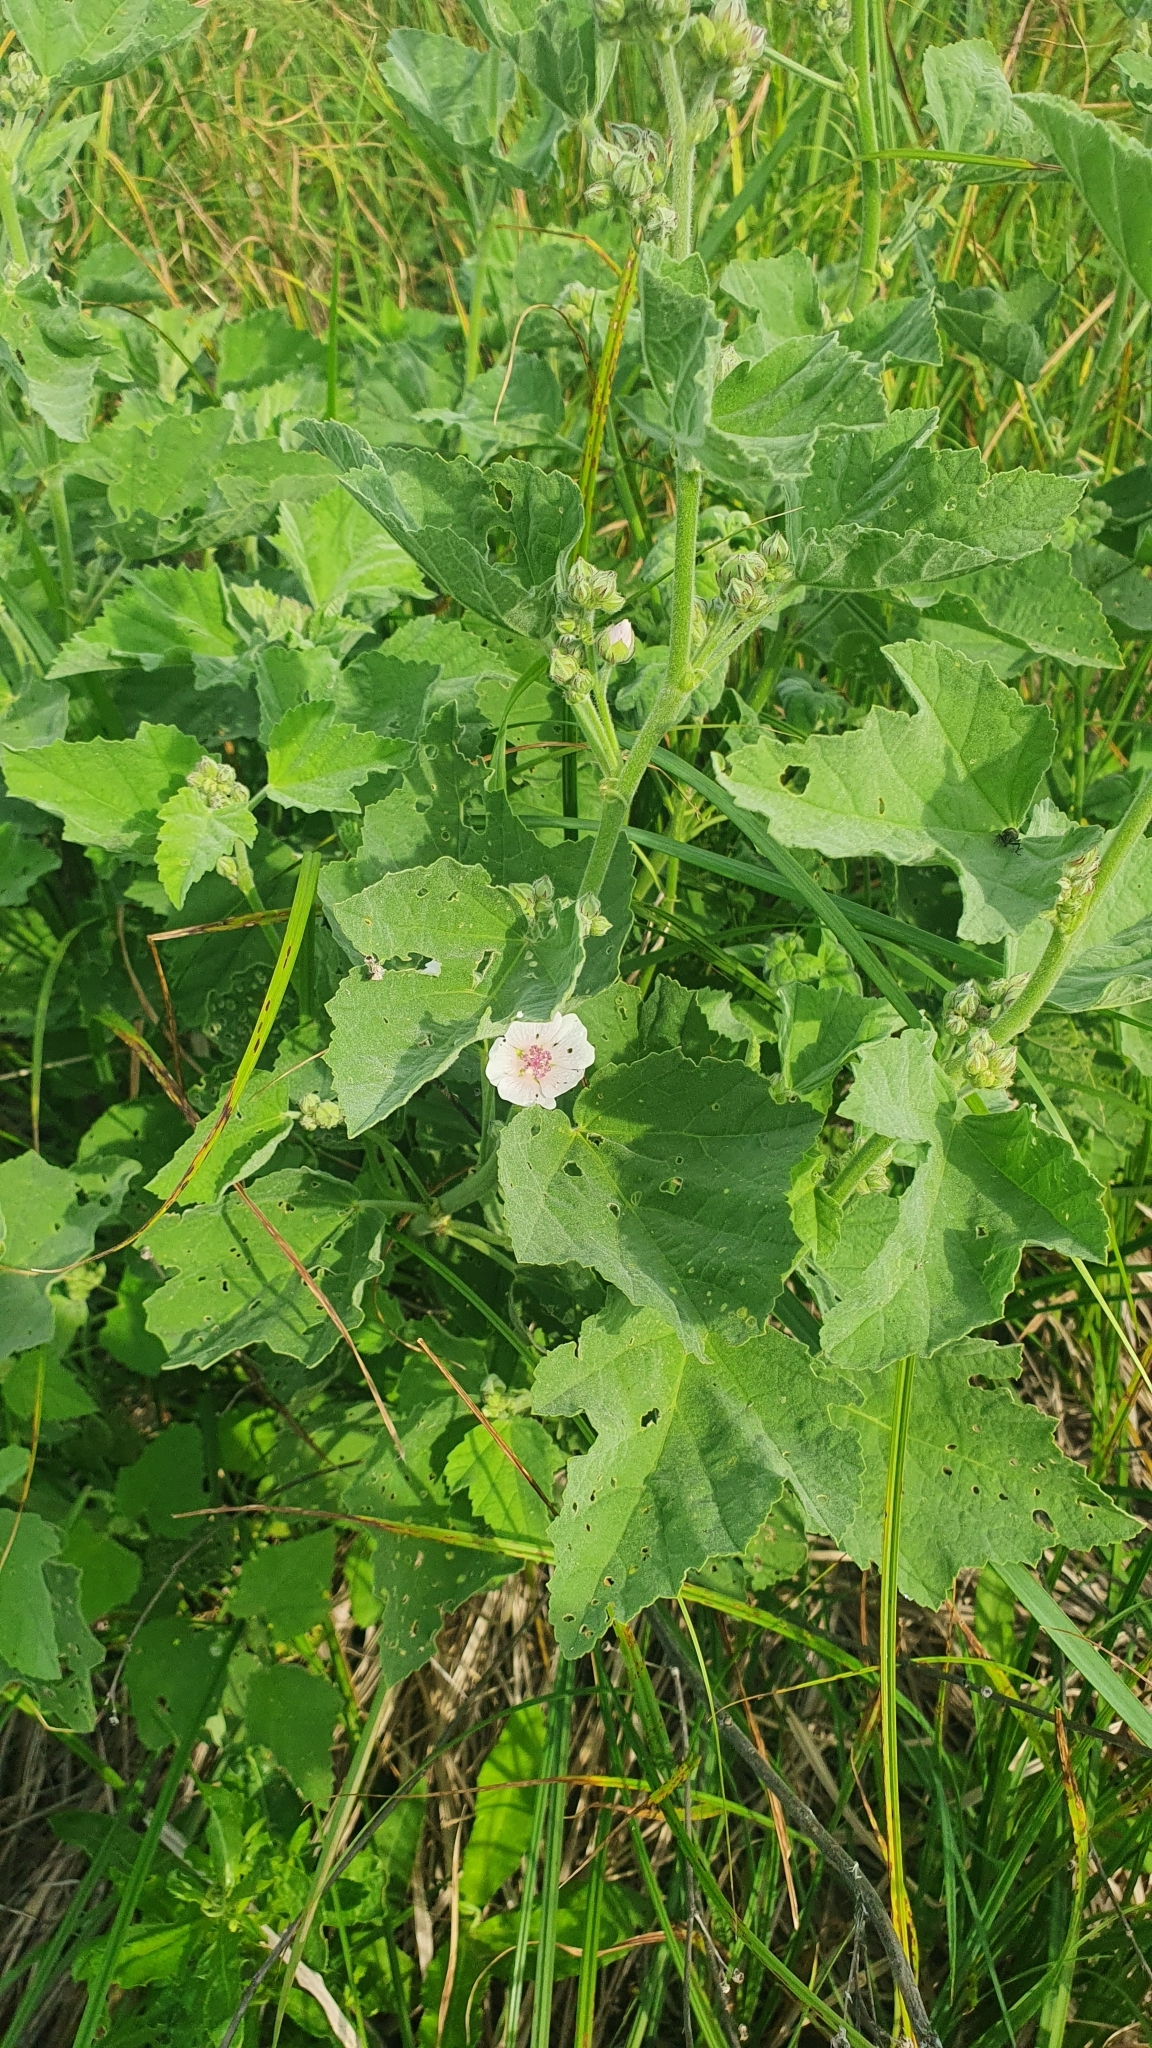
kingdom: Plantae
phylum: Tracheophyta
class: Magnoliopsida
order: Malvales
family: Malvaceae
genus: Althaea
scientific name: Althaea officinalis
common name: Marsh-mallow
